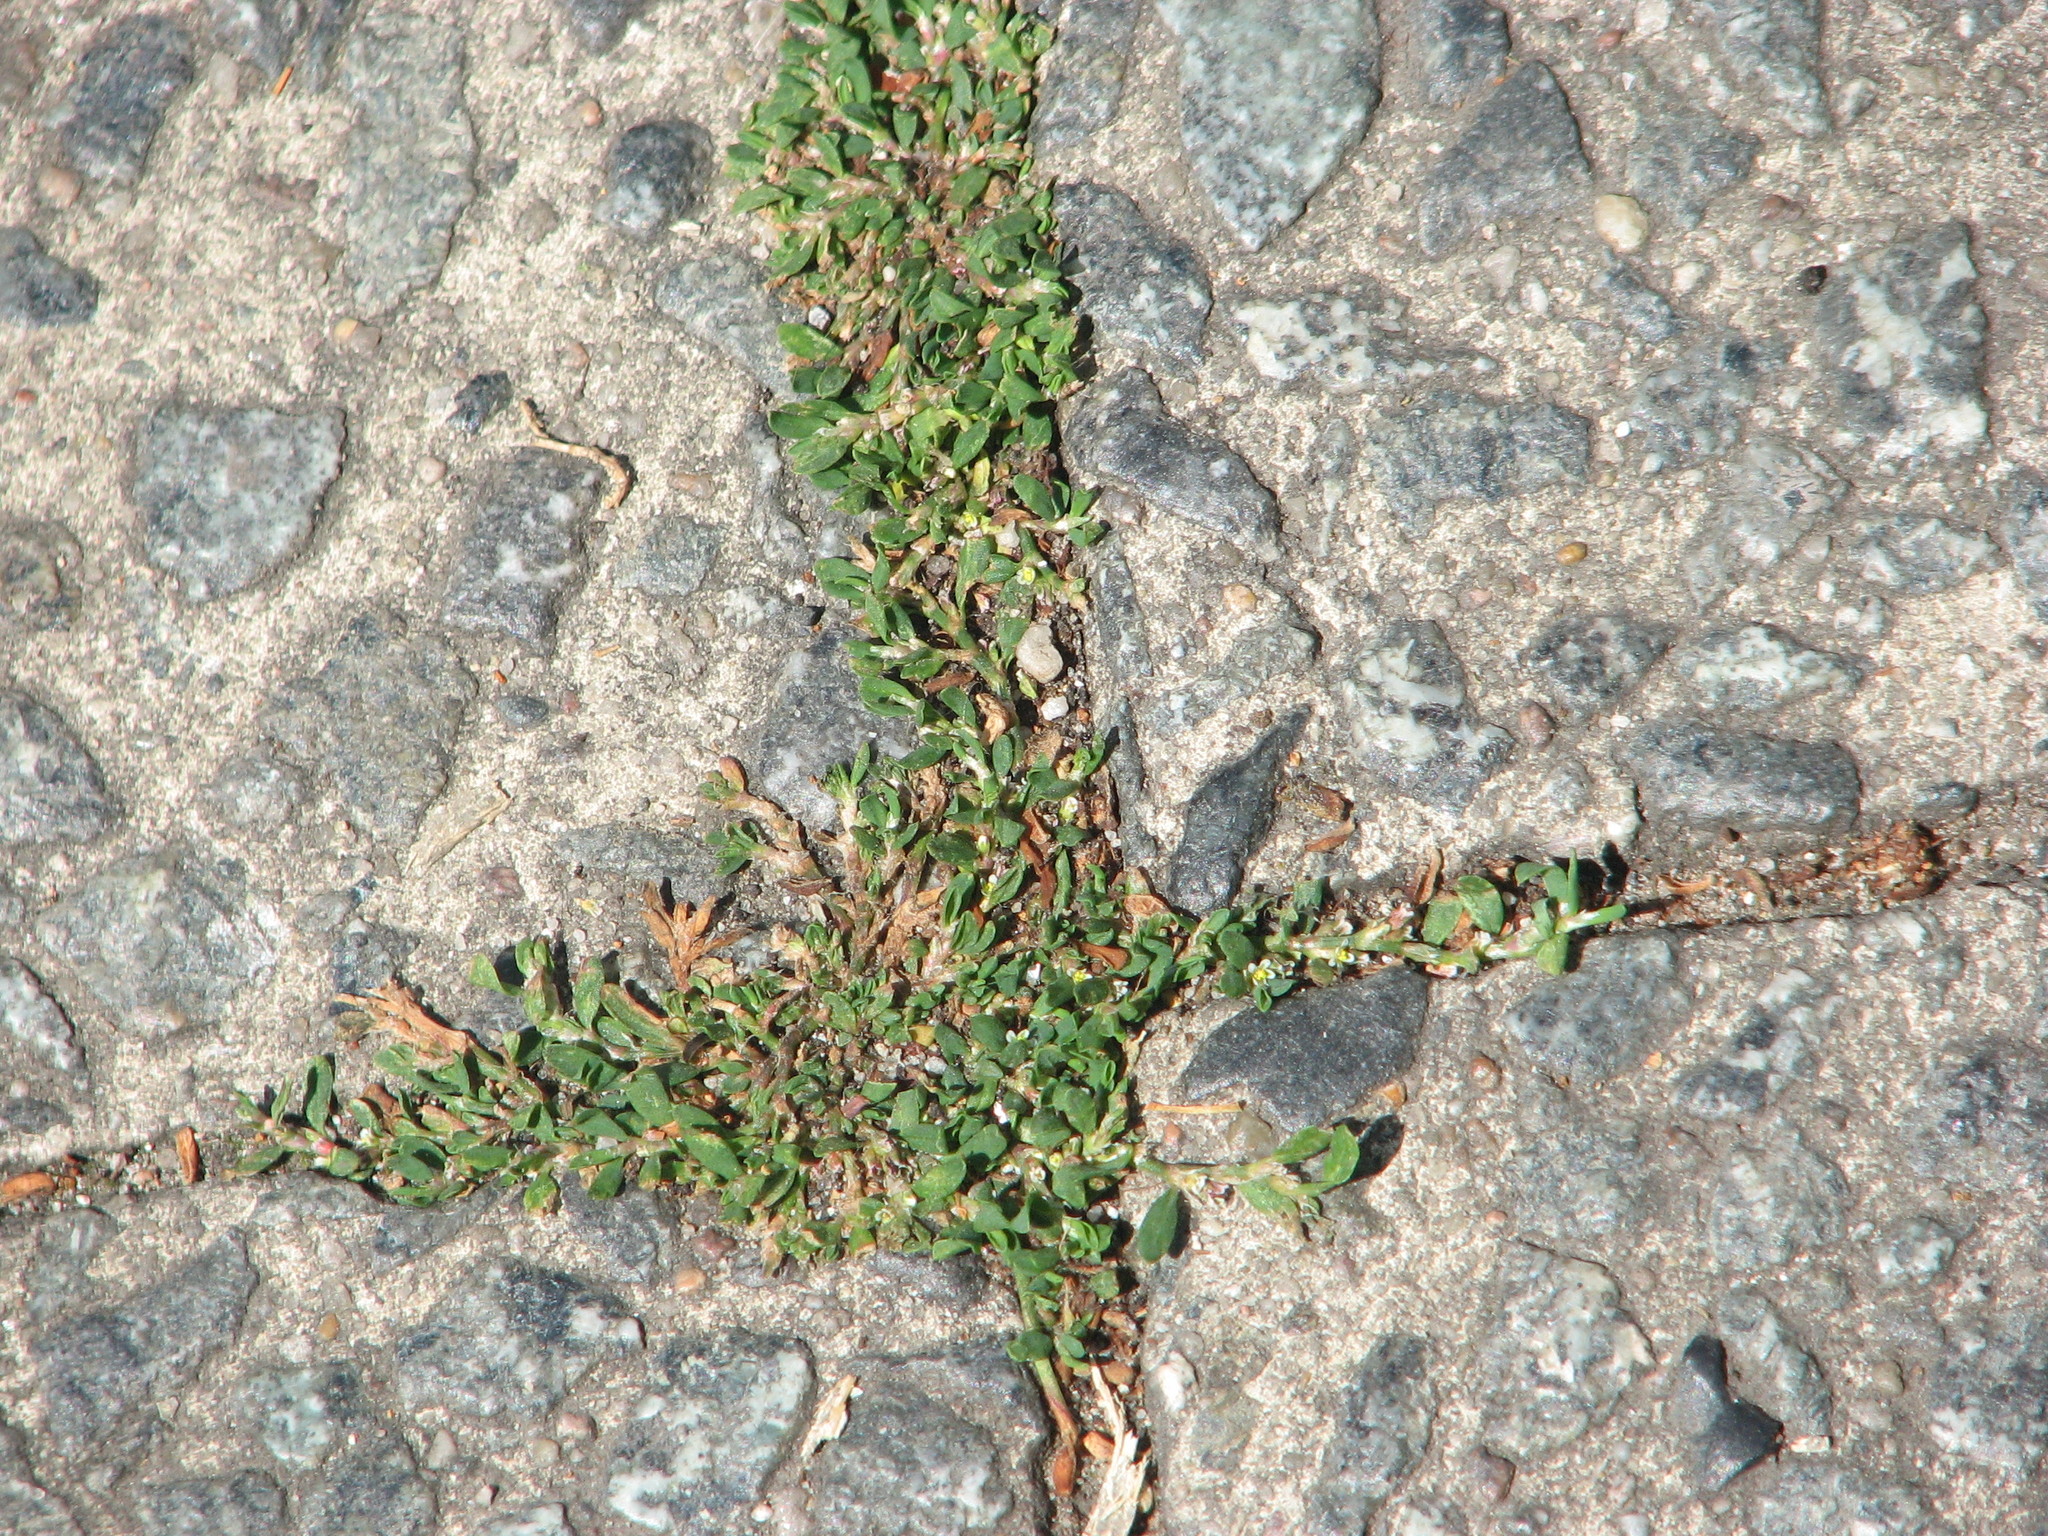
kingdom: Plantae
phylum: Tracheophyta
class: Magnoliopsida
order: Caryophyllales
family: Polygonaceae
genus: Polygonum
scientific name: Polygonum aviculare
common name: Prostrate knotweed
